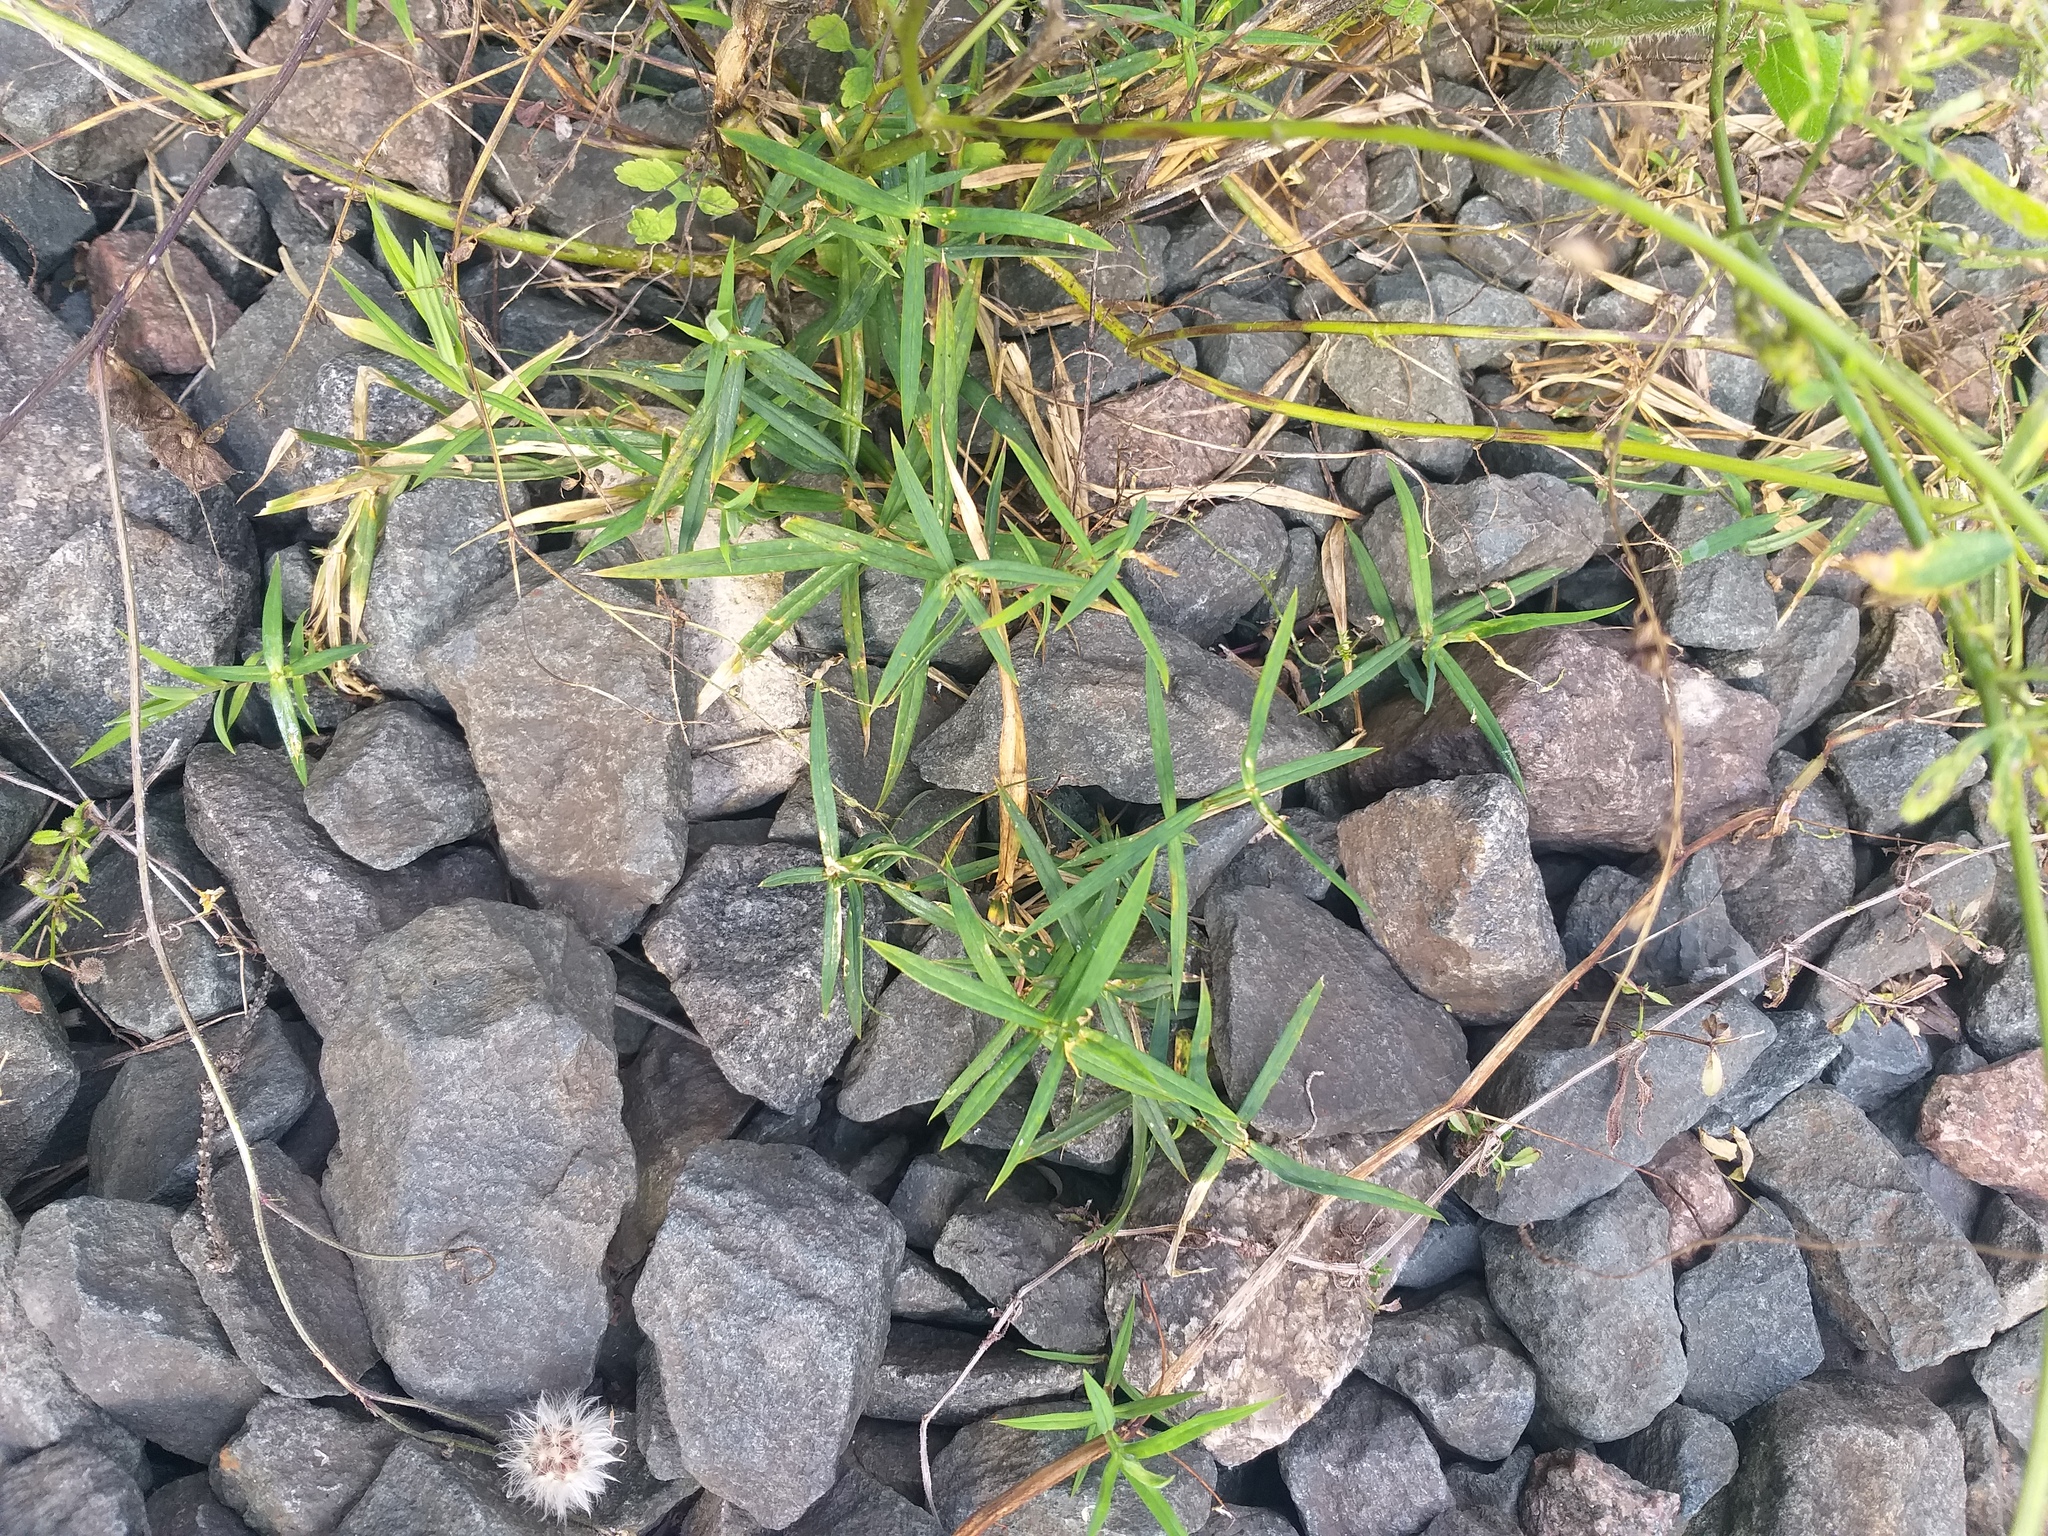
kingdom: Plantae
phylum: Tracheophyta
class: Magnoliopsida
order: Caryophyllales
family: Caryophyllaceae
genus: Rabelera
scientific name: Rabelera holostea
